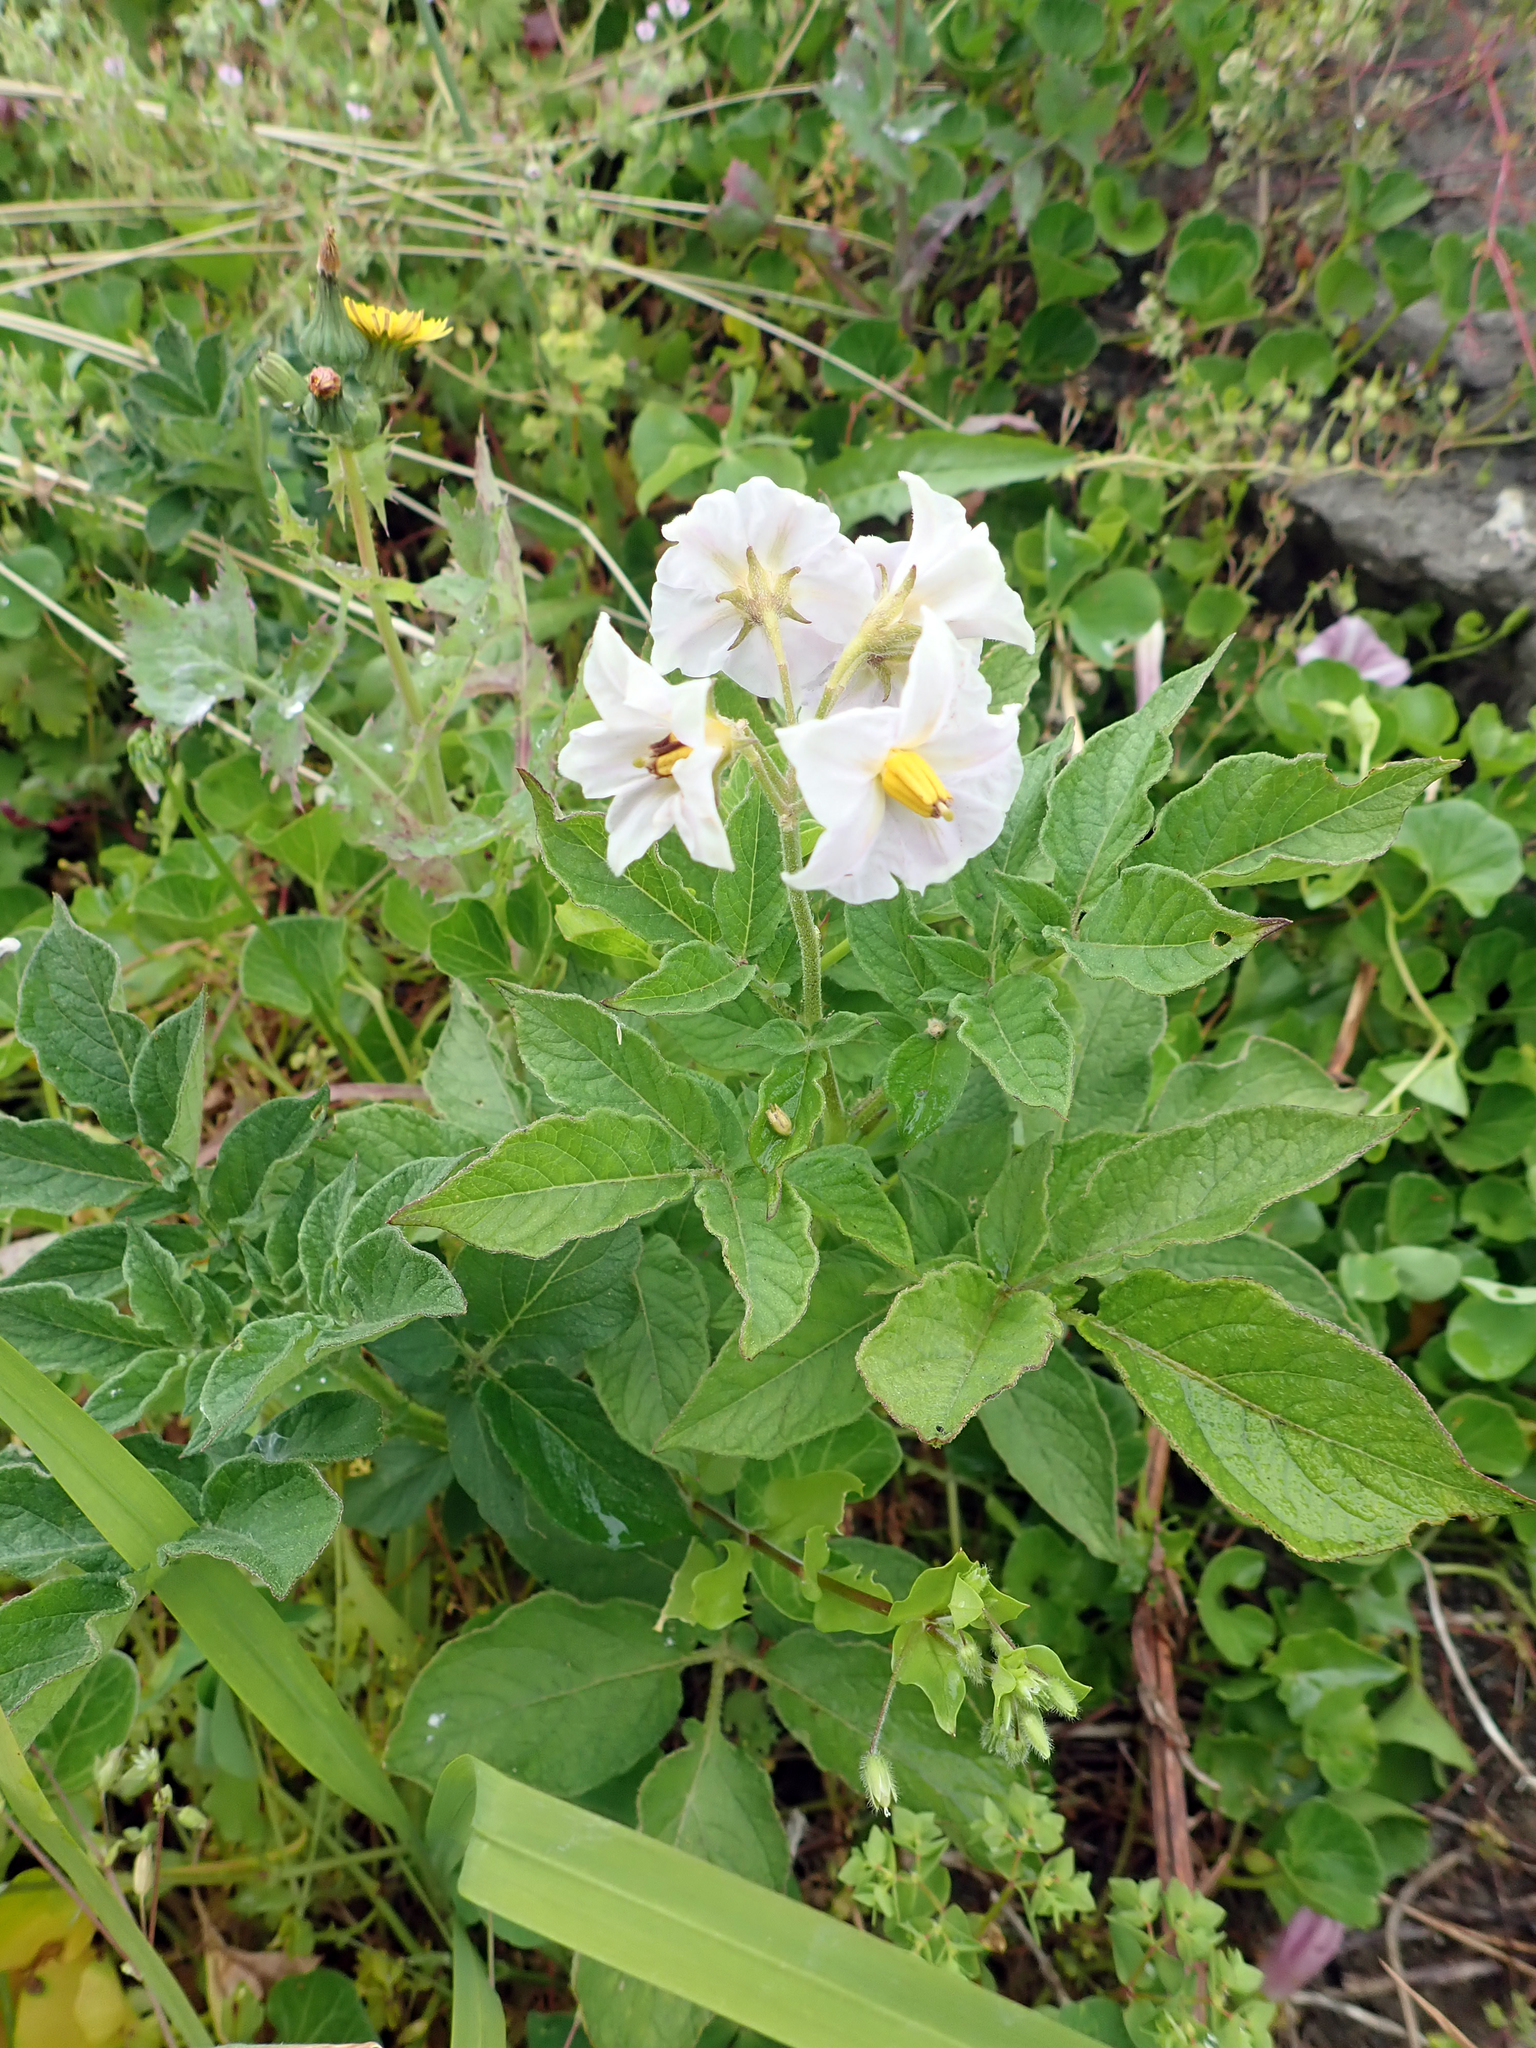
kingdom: Plantae
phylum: Tracheophyta
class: Magnoliopsida
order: Solanales
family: Solanaceae
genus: Solanum
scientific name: Solanum tuberosum
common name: Potato
